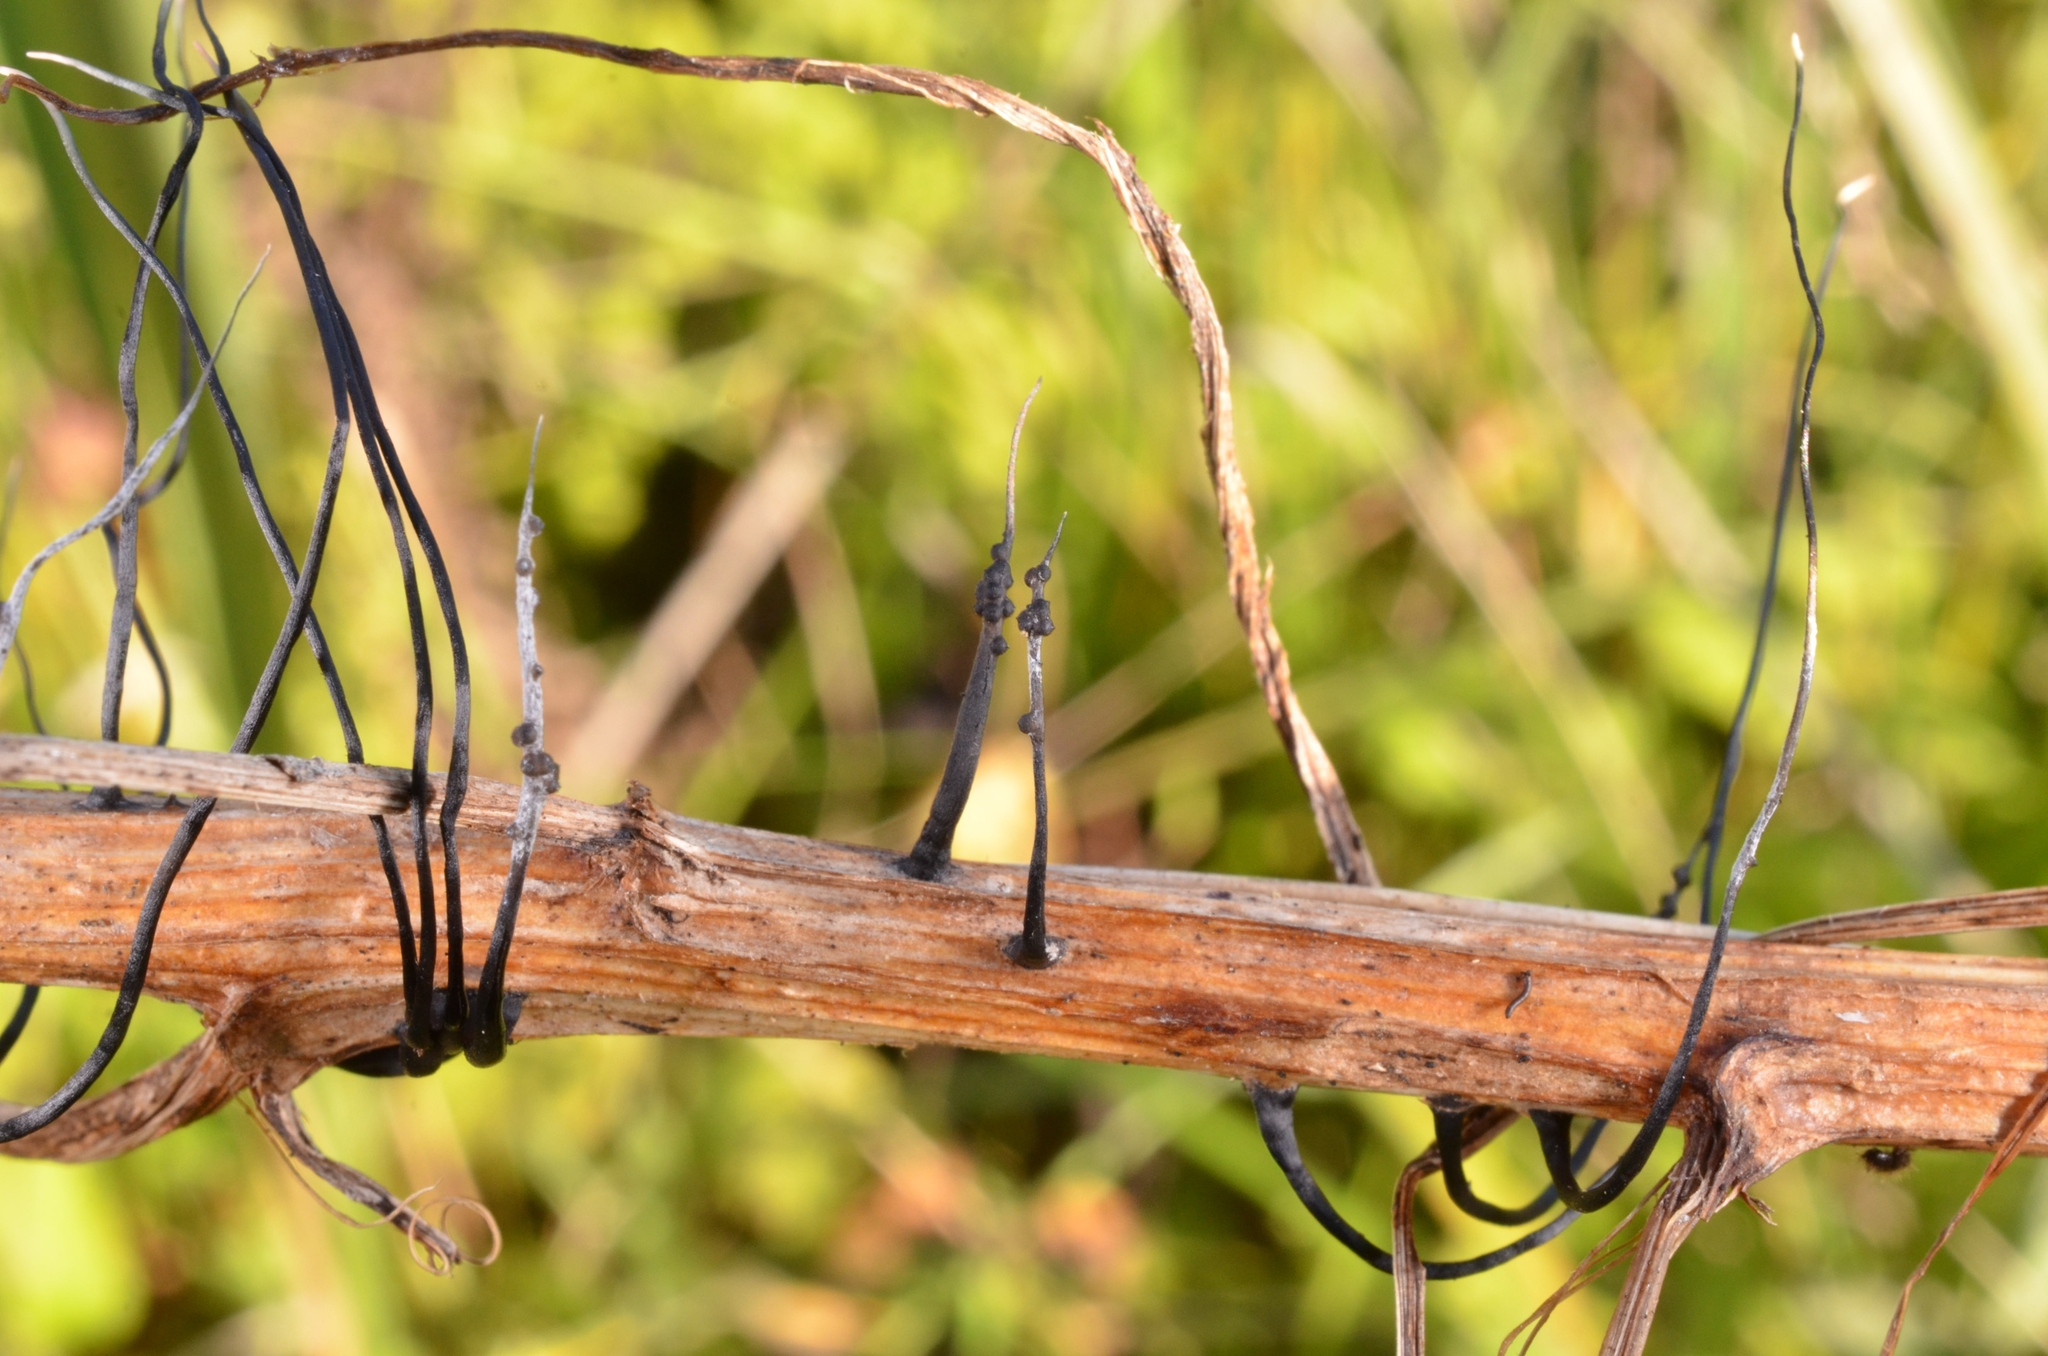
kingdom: Fungi
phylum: Ascomycota
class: Sordariomycetes
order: Xylariales
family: Xylariaceae
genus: Xylaria
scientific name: Xylaria
